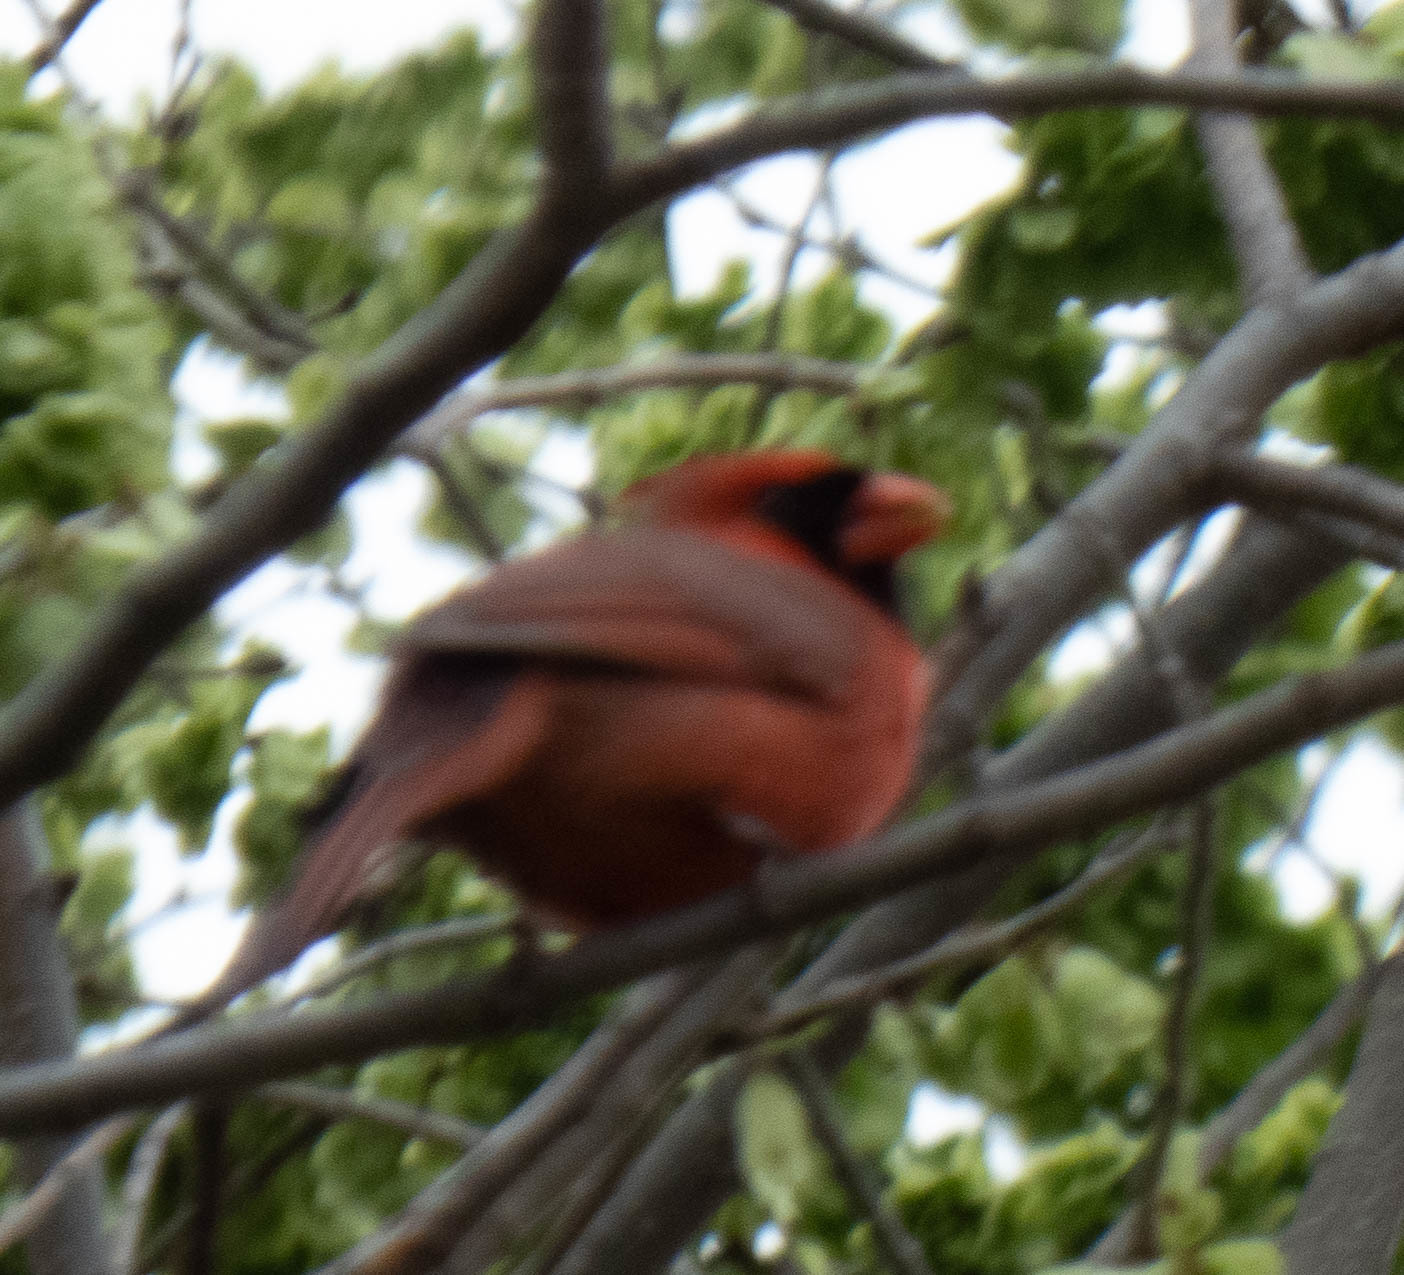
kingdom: Animalia
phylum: Chordata
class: Aves
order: Passeriformes
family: Cardinalidae
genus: Cardinalis
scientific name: Cardinalis cardinalis
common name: Northern cardinal
